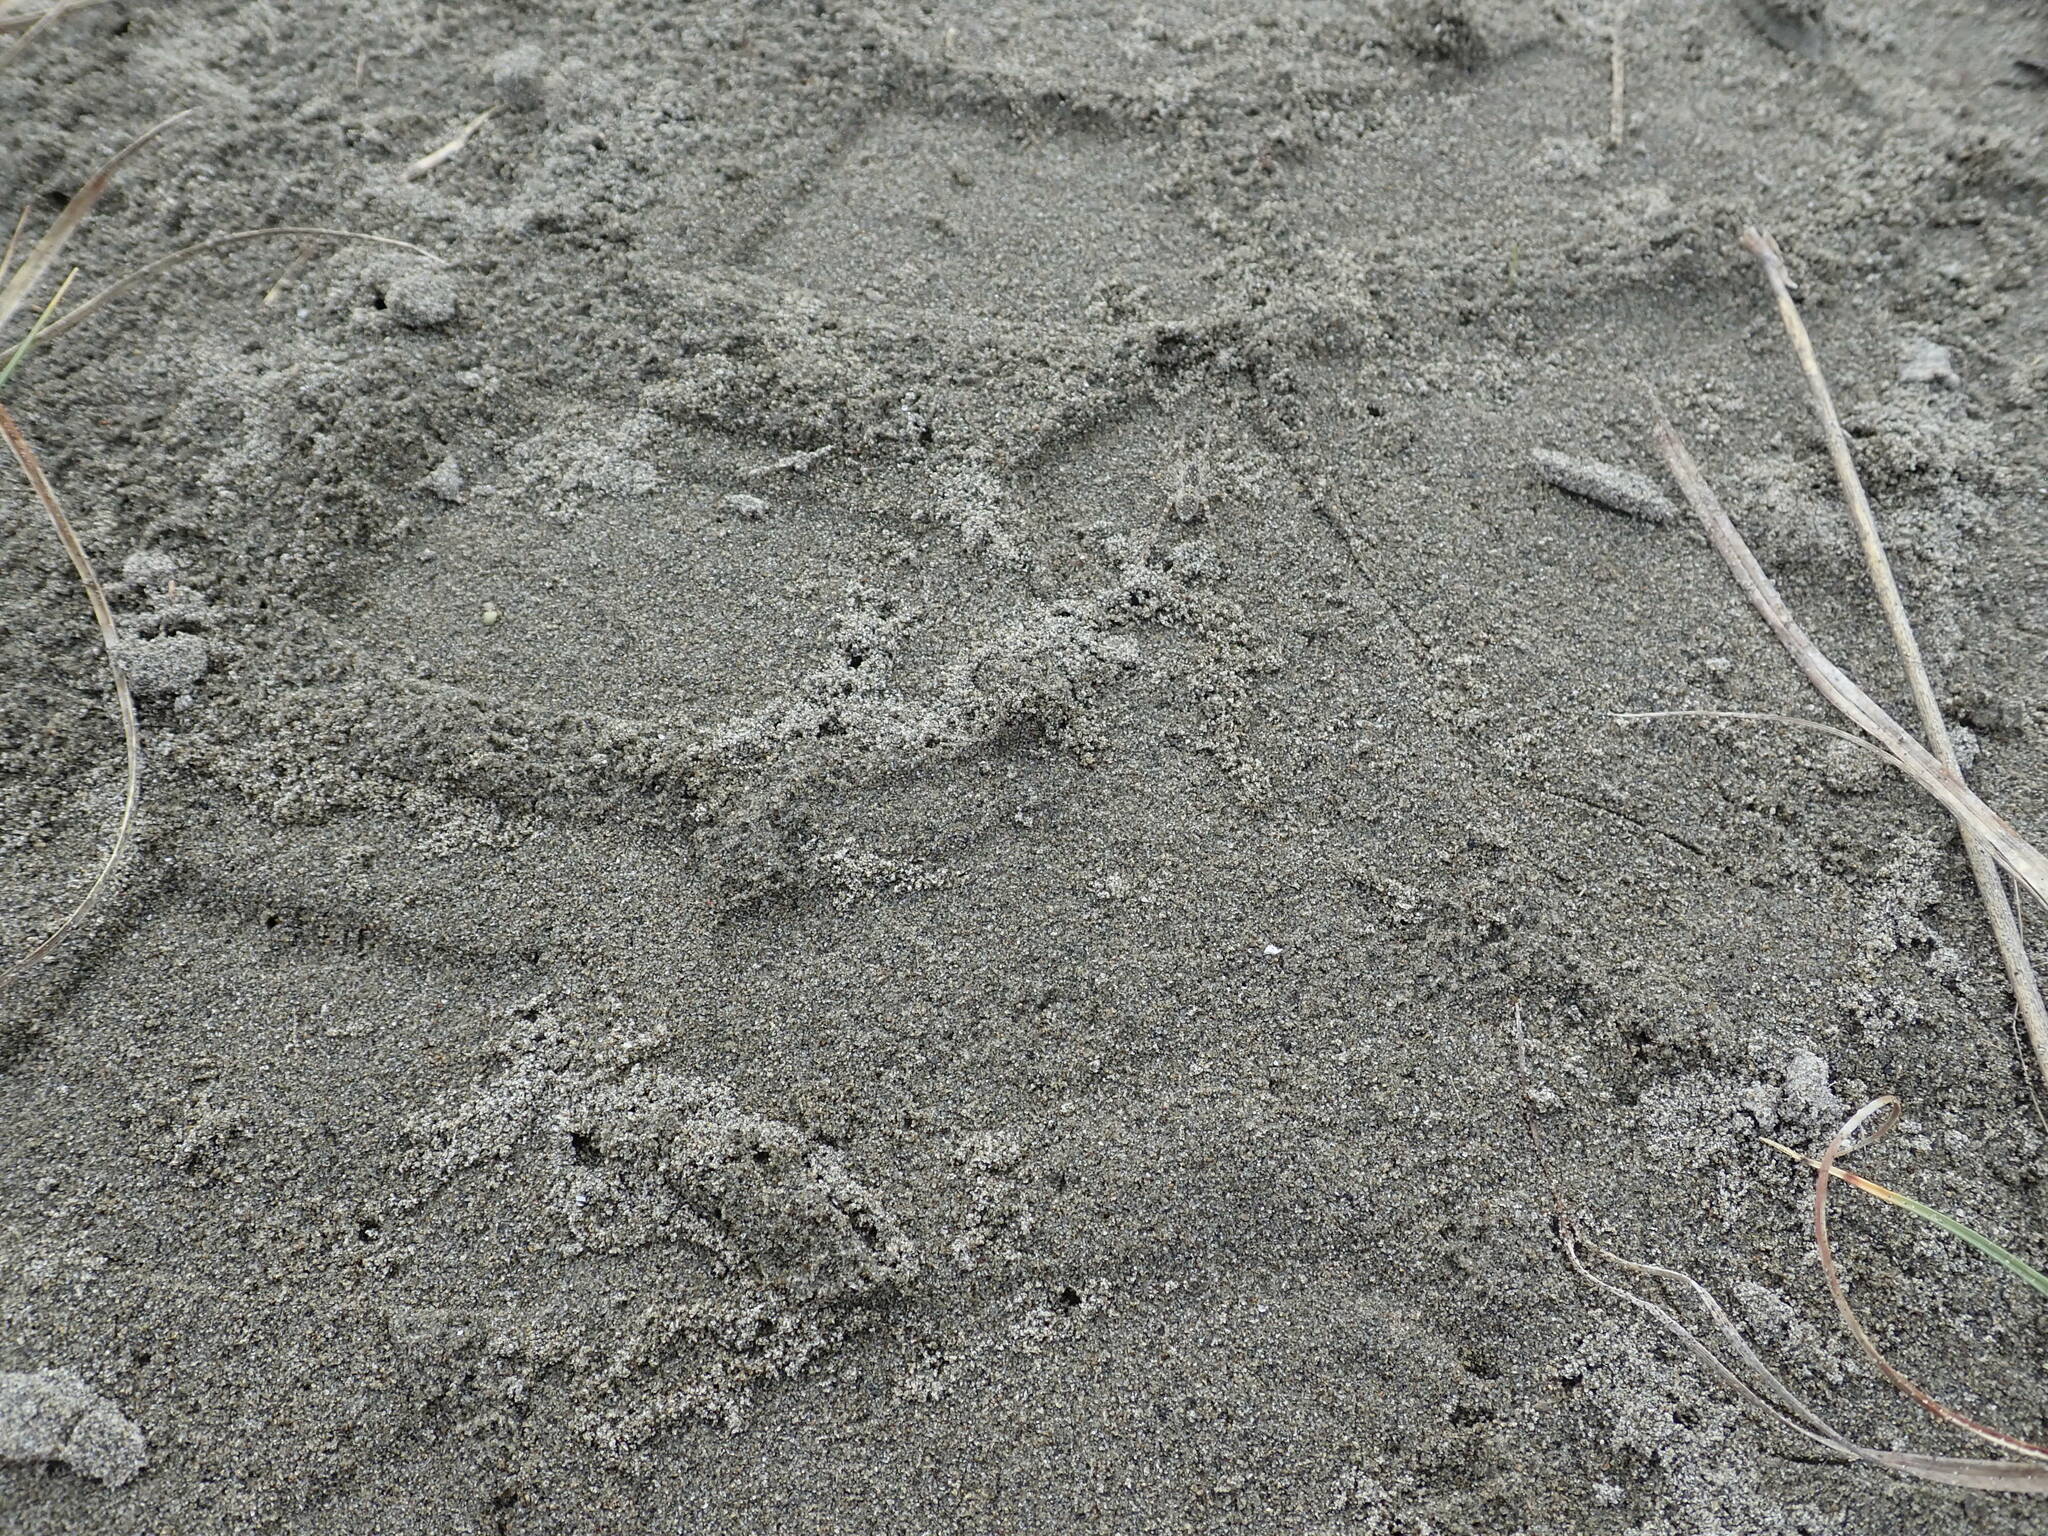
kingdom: Animalia
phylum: Arthropoda
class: Arachnida
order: Araneae
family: Lycosidae
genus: Anoteropsis
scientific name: Anoteropsis litoralis
